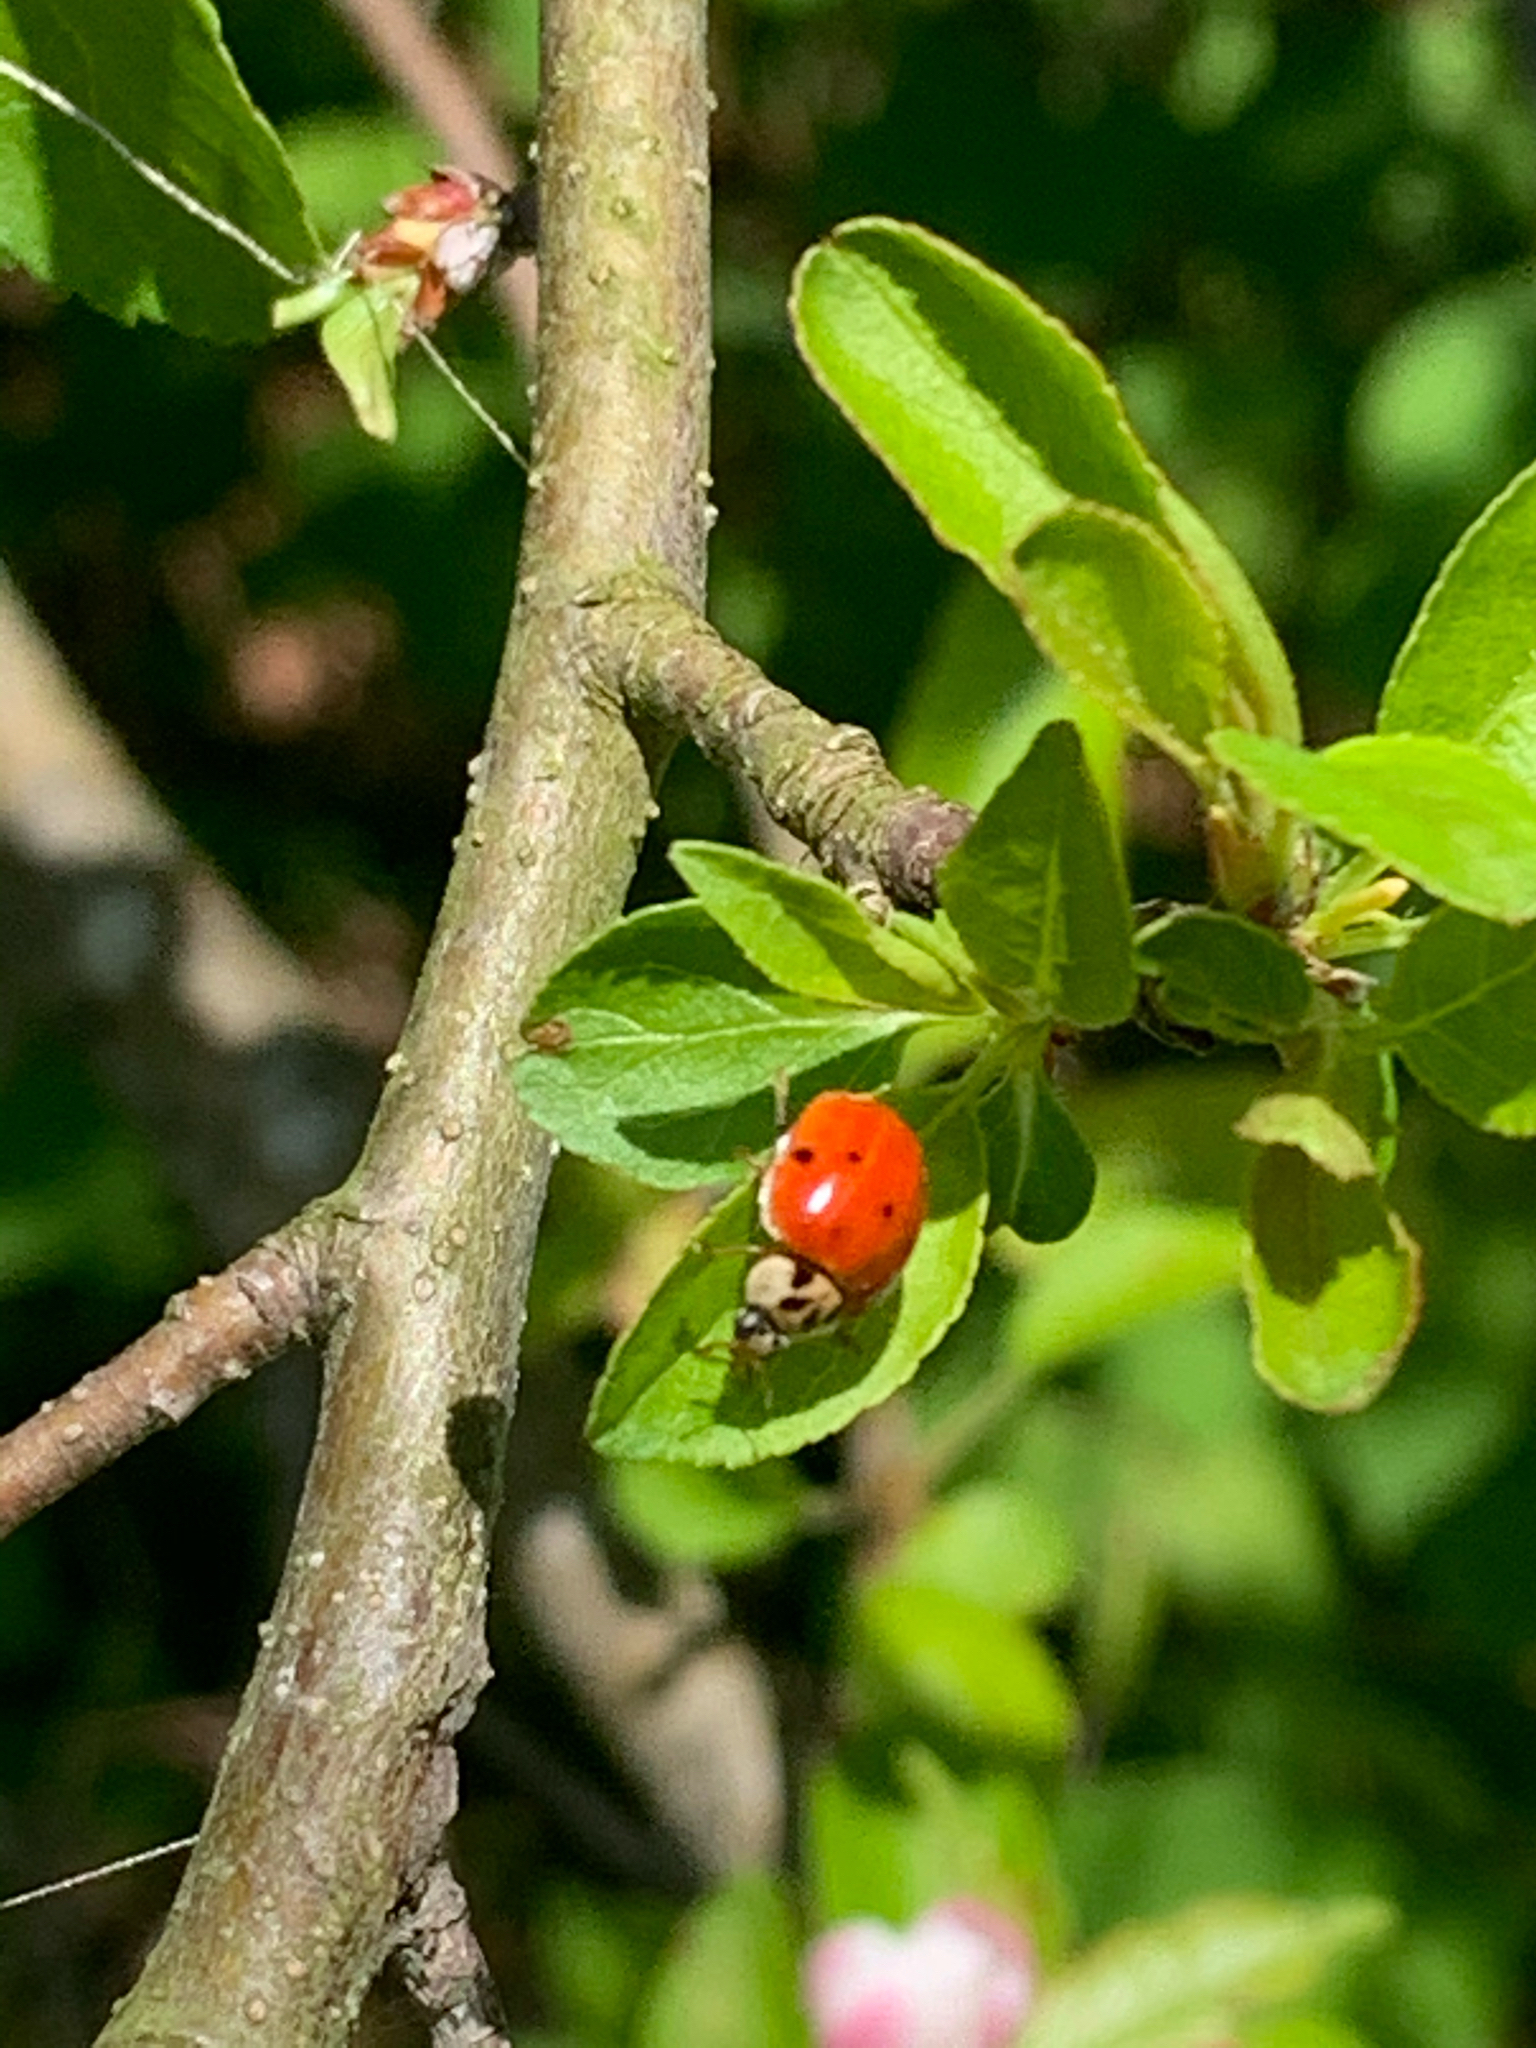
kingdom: Animalia
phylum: Arthropoda
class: Insecta
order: Coleoptera
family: Coccinellidae
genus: Harmonia
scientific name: Harmonia axyridis
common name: Harlequin ladybird
